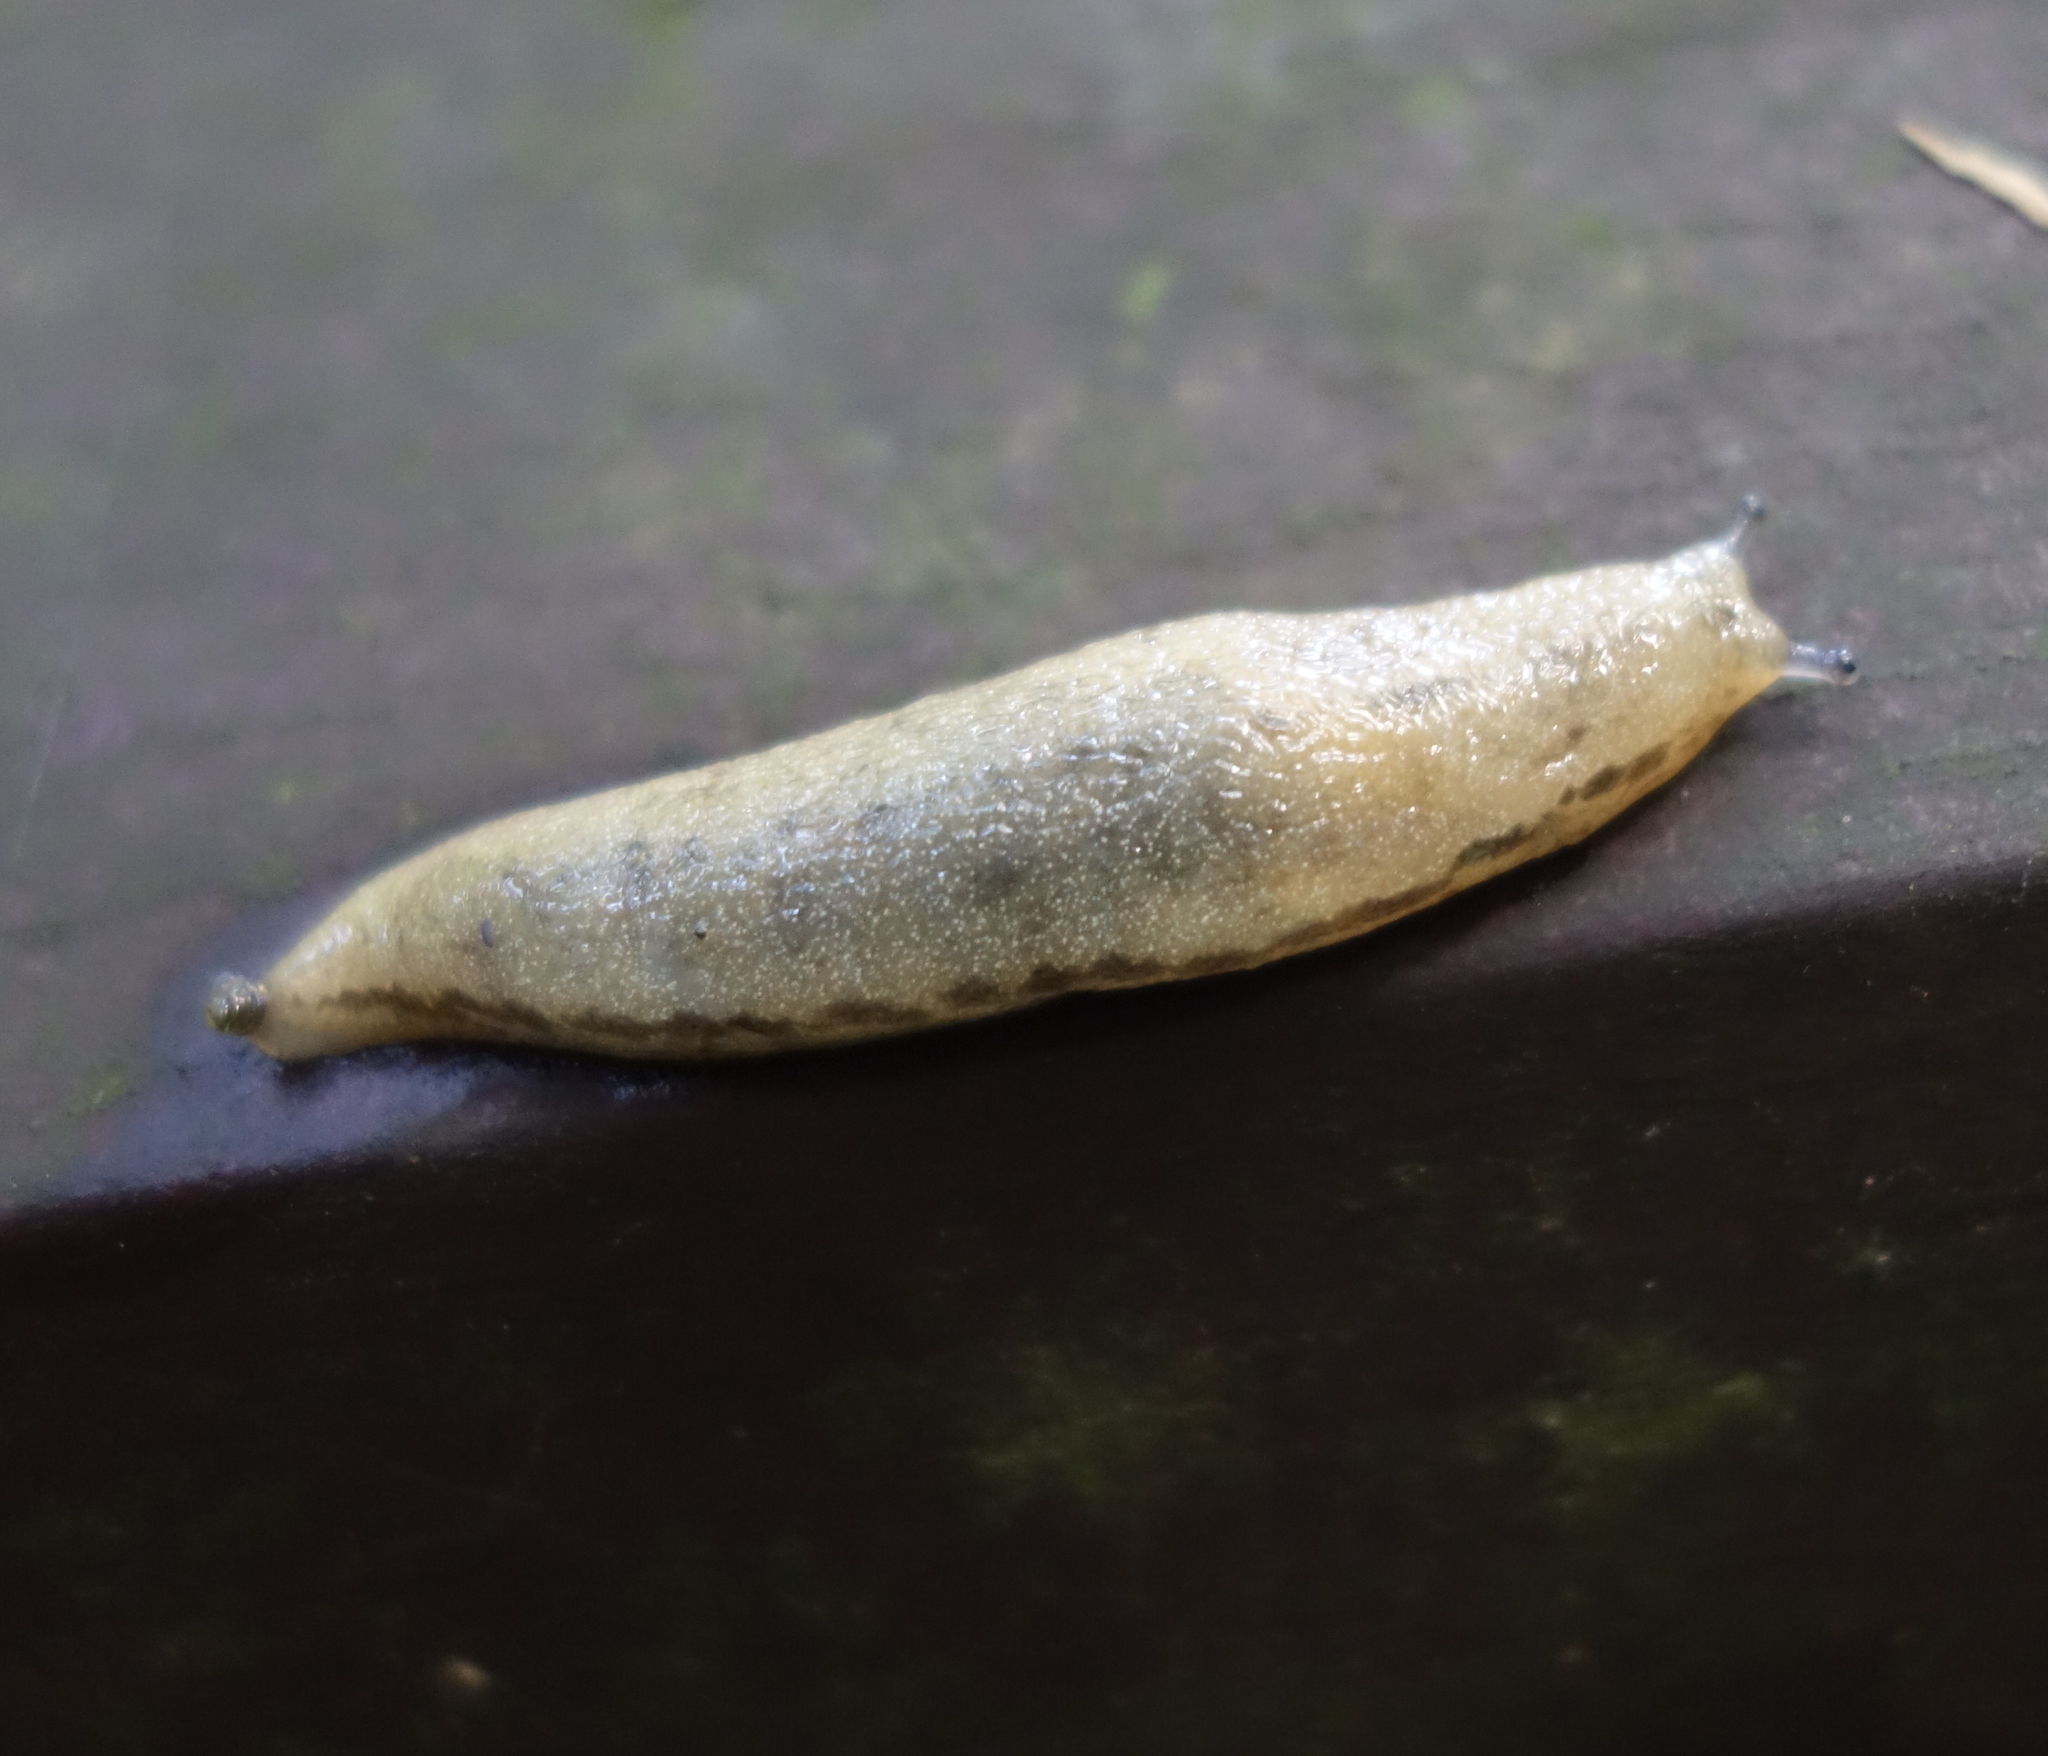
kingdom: Animalia
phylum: Mollusca
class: Gastropoda
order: Stylommatophora
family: Philomycidae
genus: Meghimatium
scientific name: Meghimatium bilineatum
